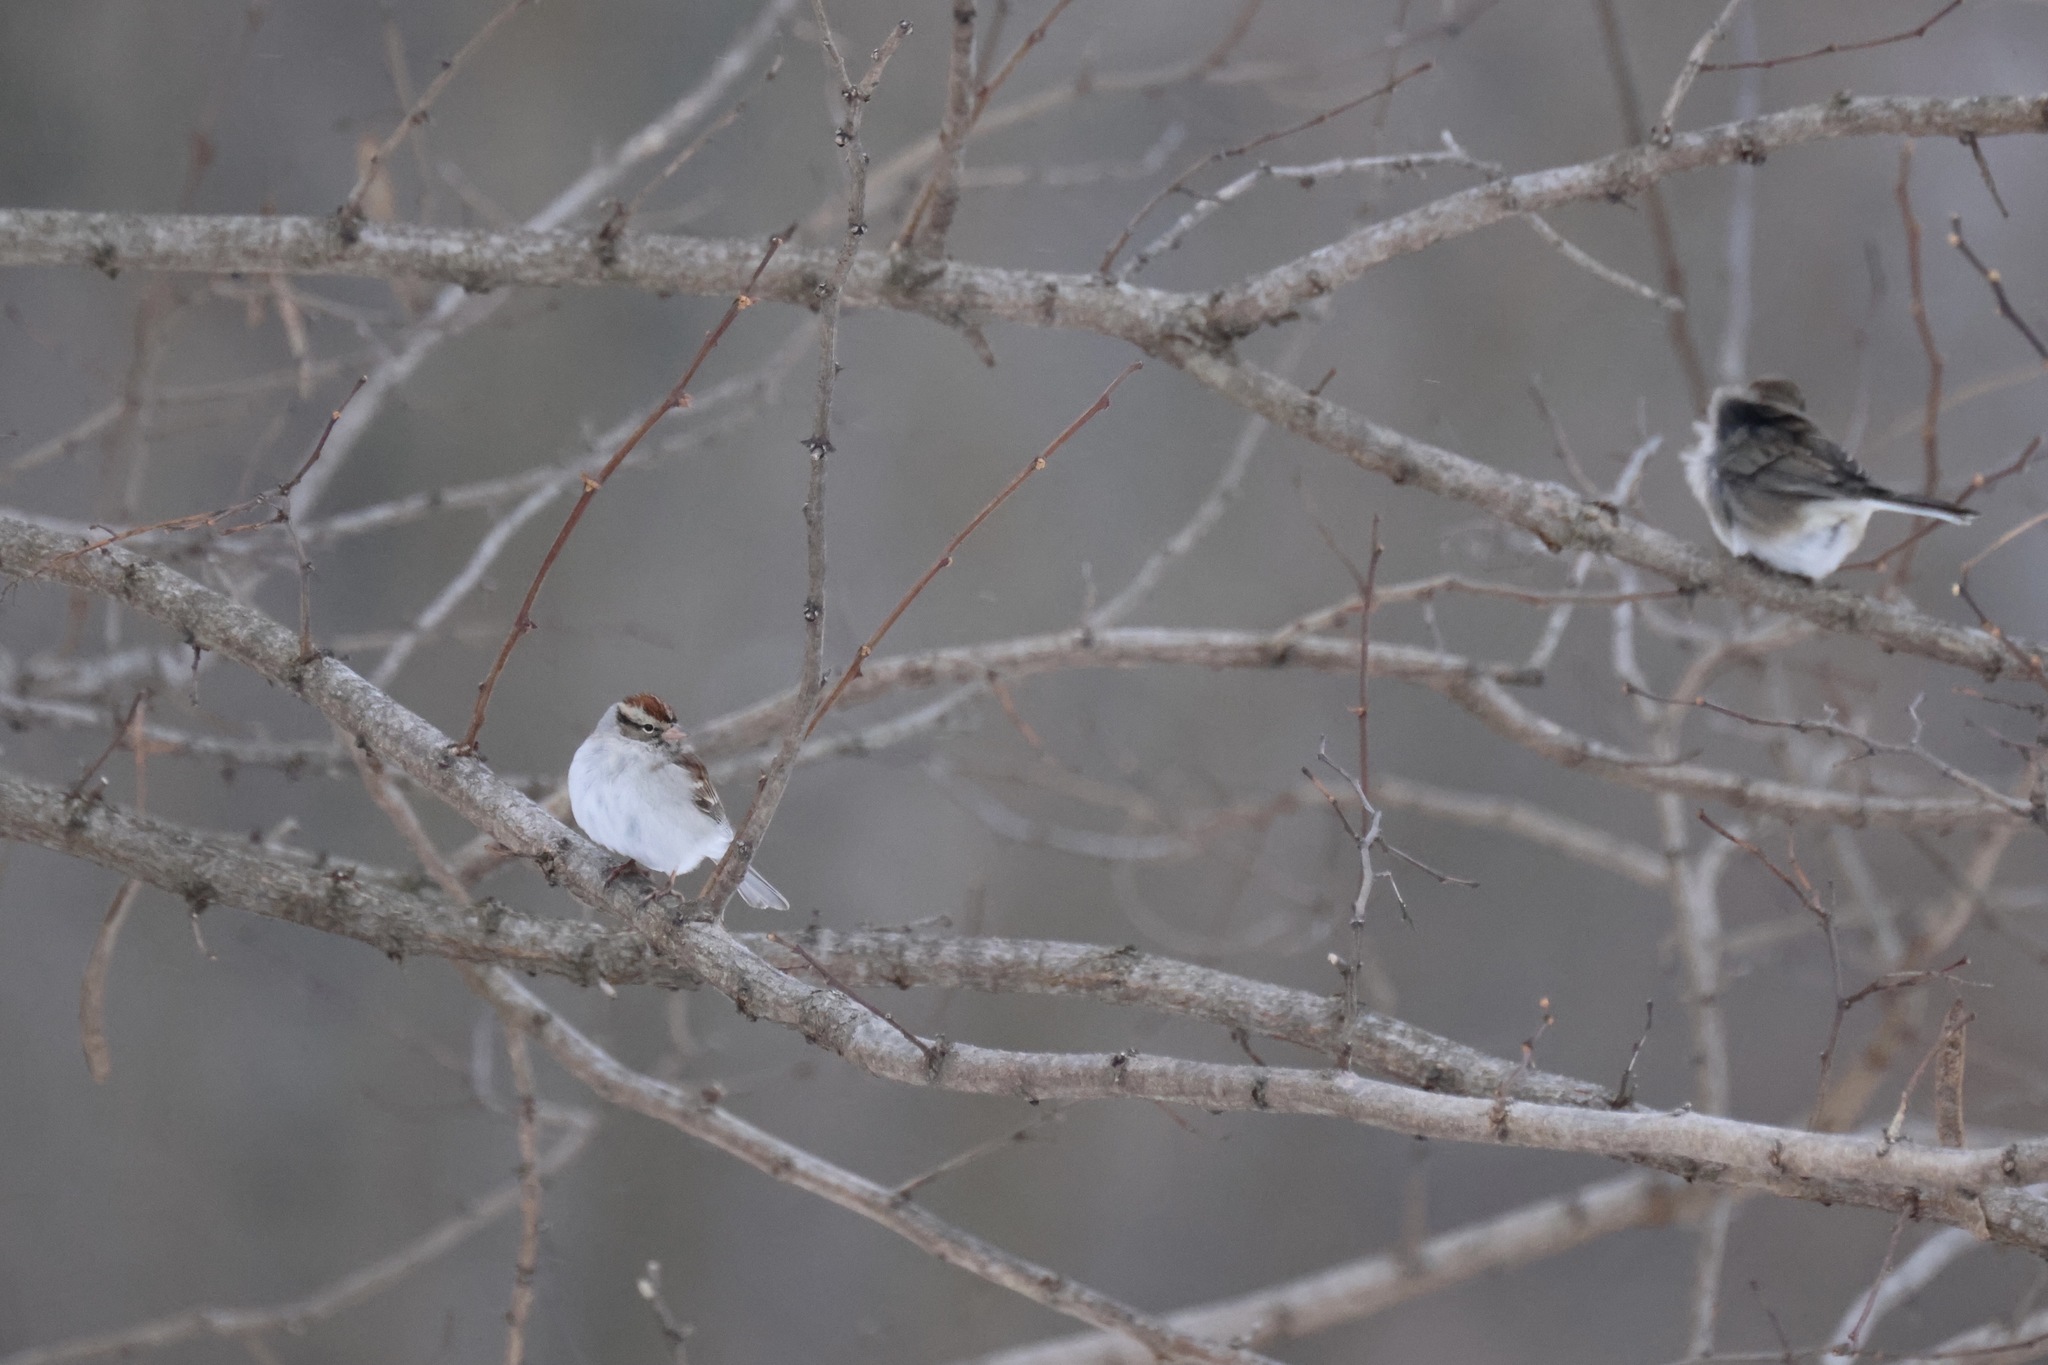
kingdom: Animalia
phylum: Chordata
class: Aves
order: Passeriformes
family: Passerellidae
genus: Spizella
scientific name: Spizella passerina
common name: Chipping sparrow
